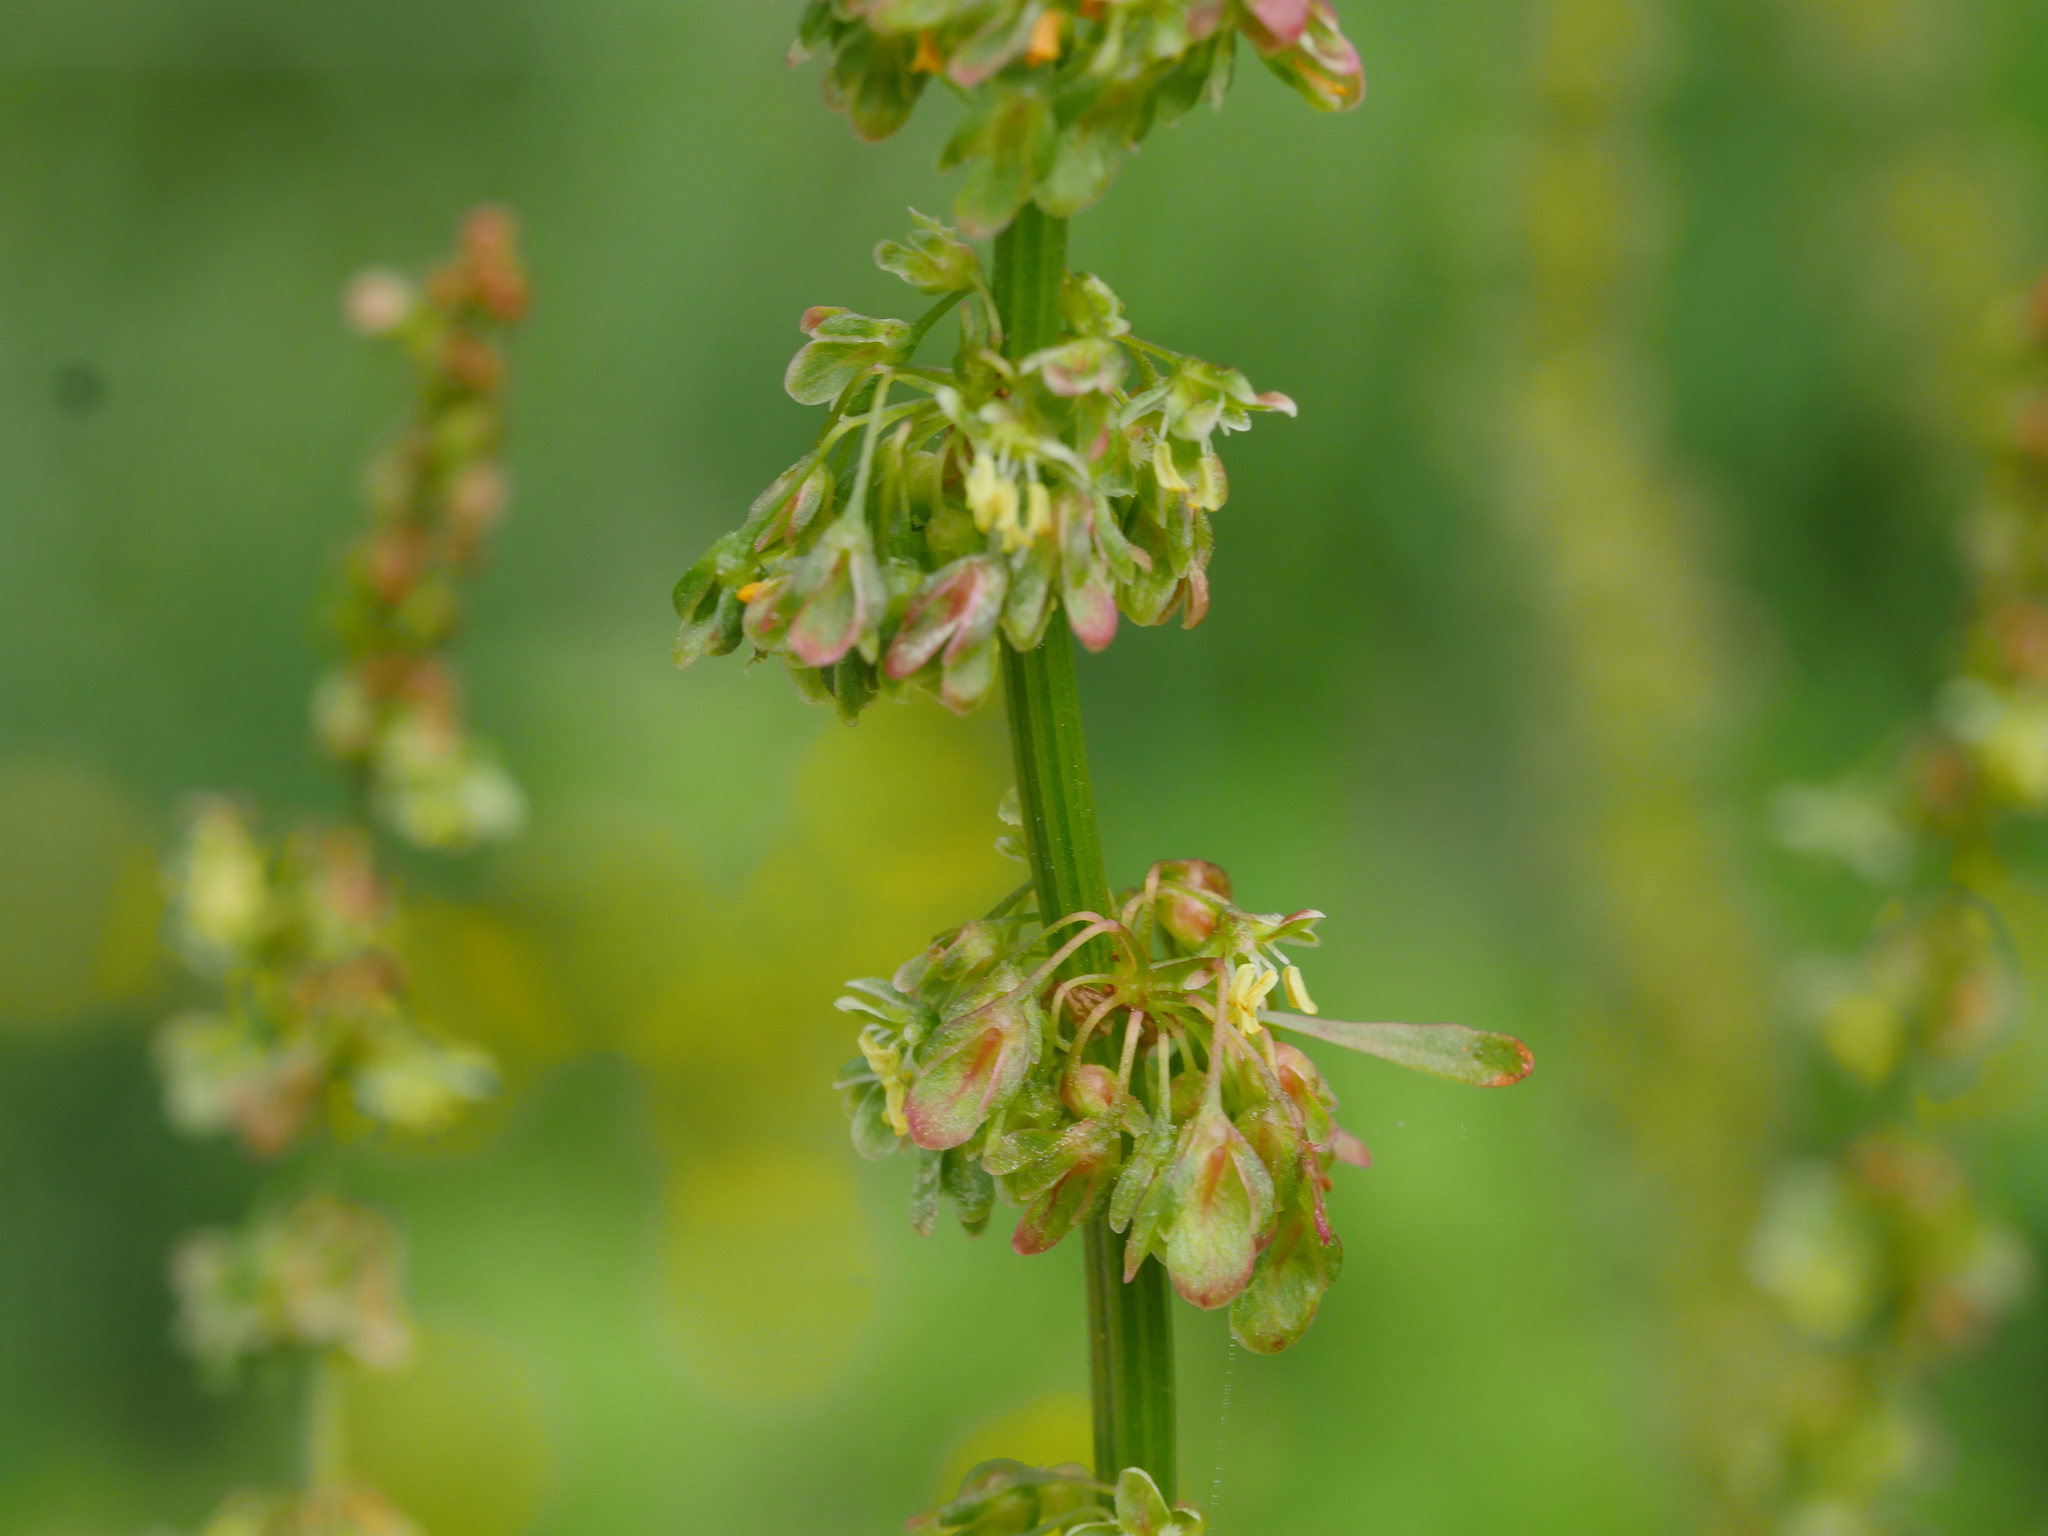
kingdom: Plantae
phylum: Tracheophyta
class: Magnoliopsida
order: Caryophyllales
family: Polygonaceae
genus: Rumex
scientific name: Rumex obtusifolius
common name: Bitter dock
